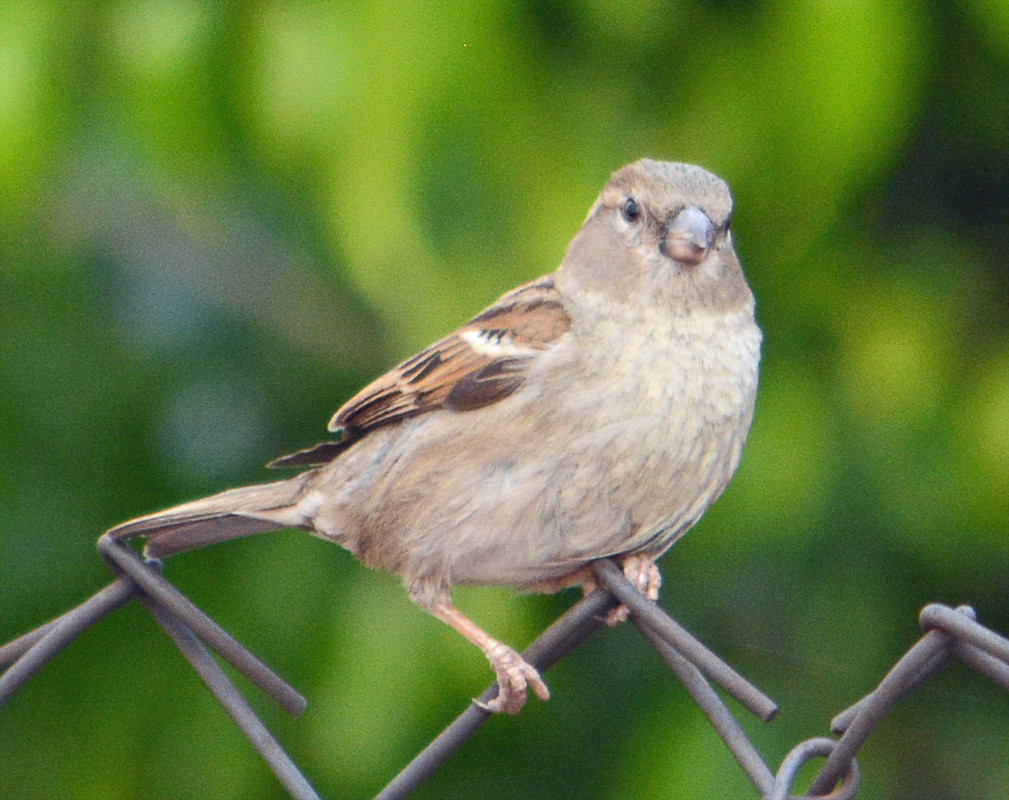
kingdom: Animalia
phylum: Chordata
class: Aves
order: Passeriformes
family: Passeridae
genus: Passer
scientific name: Passer domesticus
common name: House sparrow
